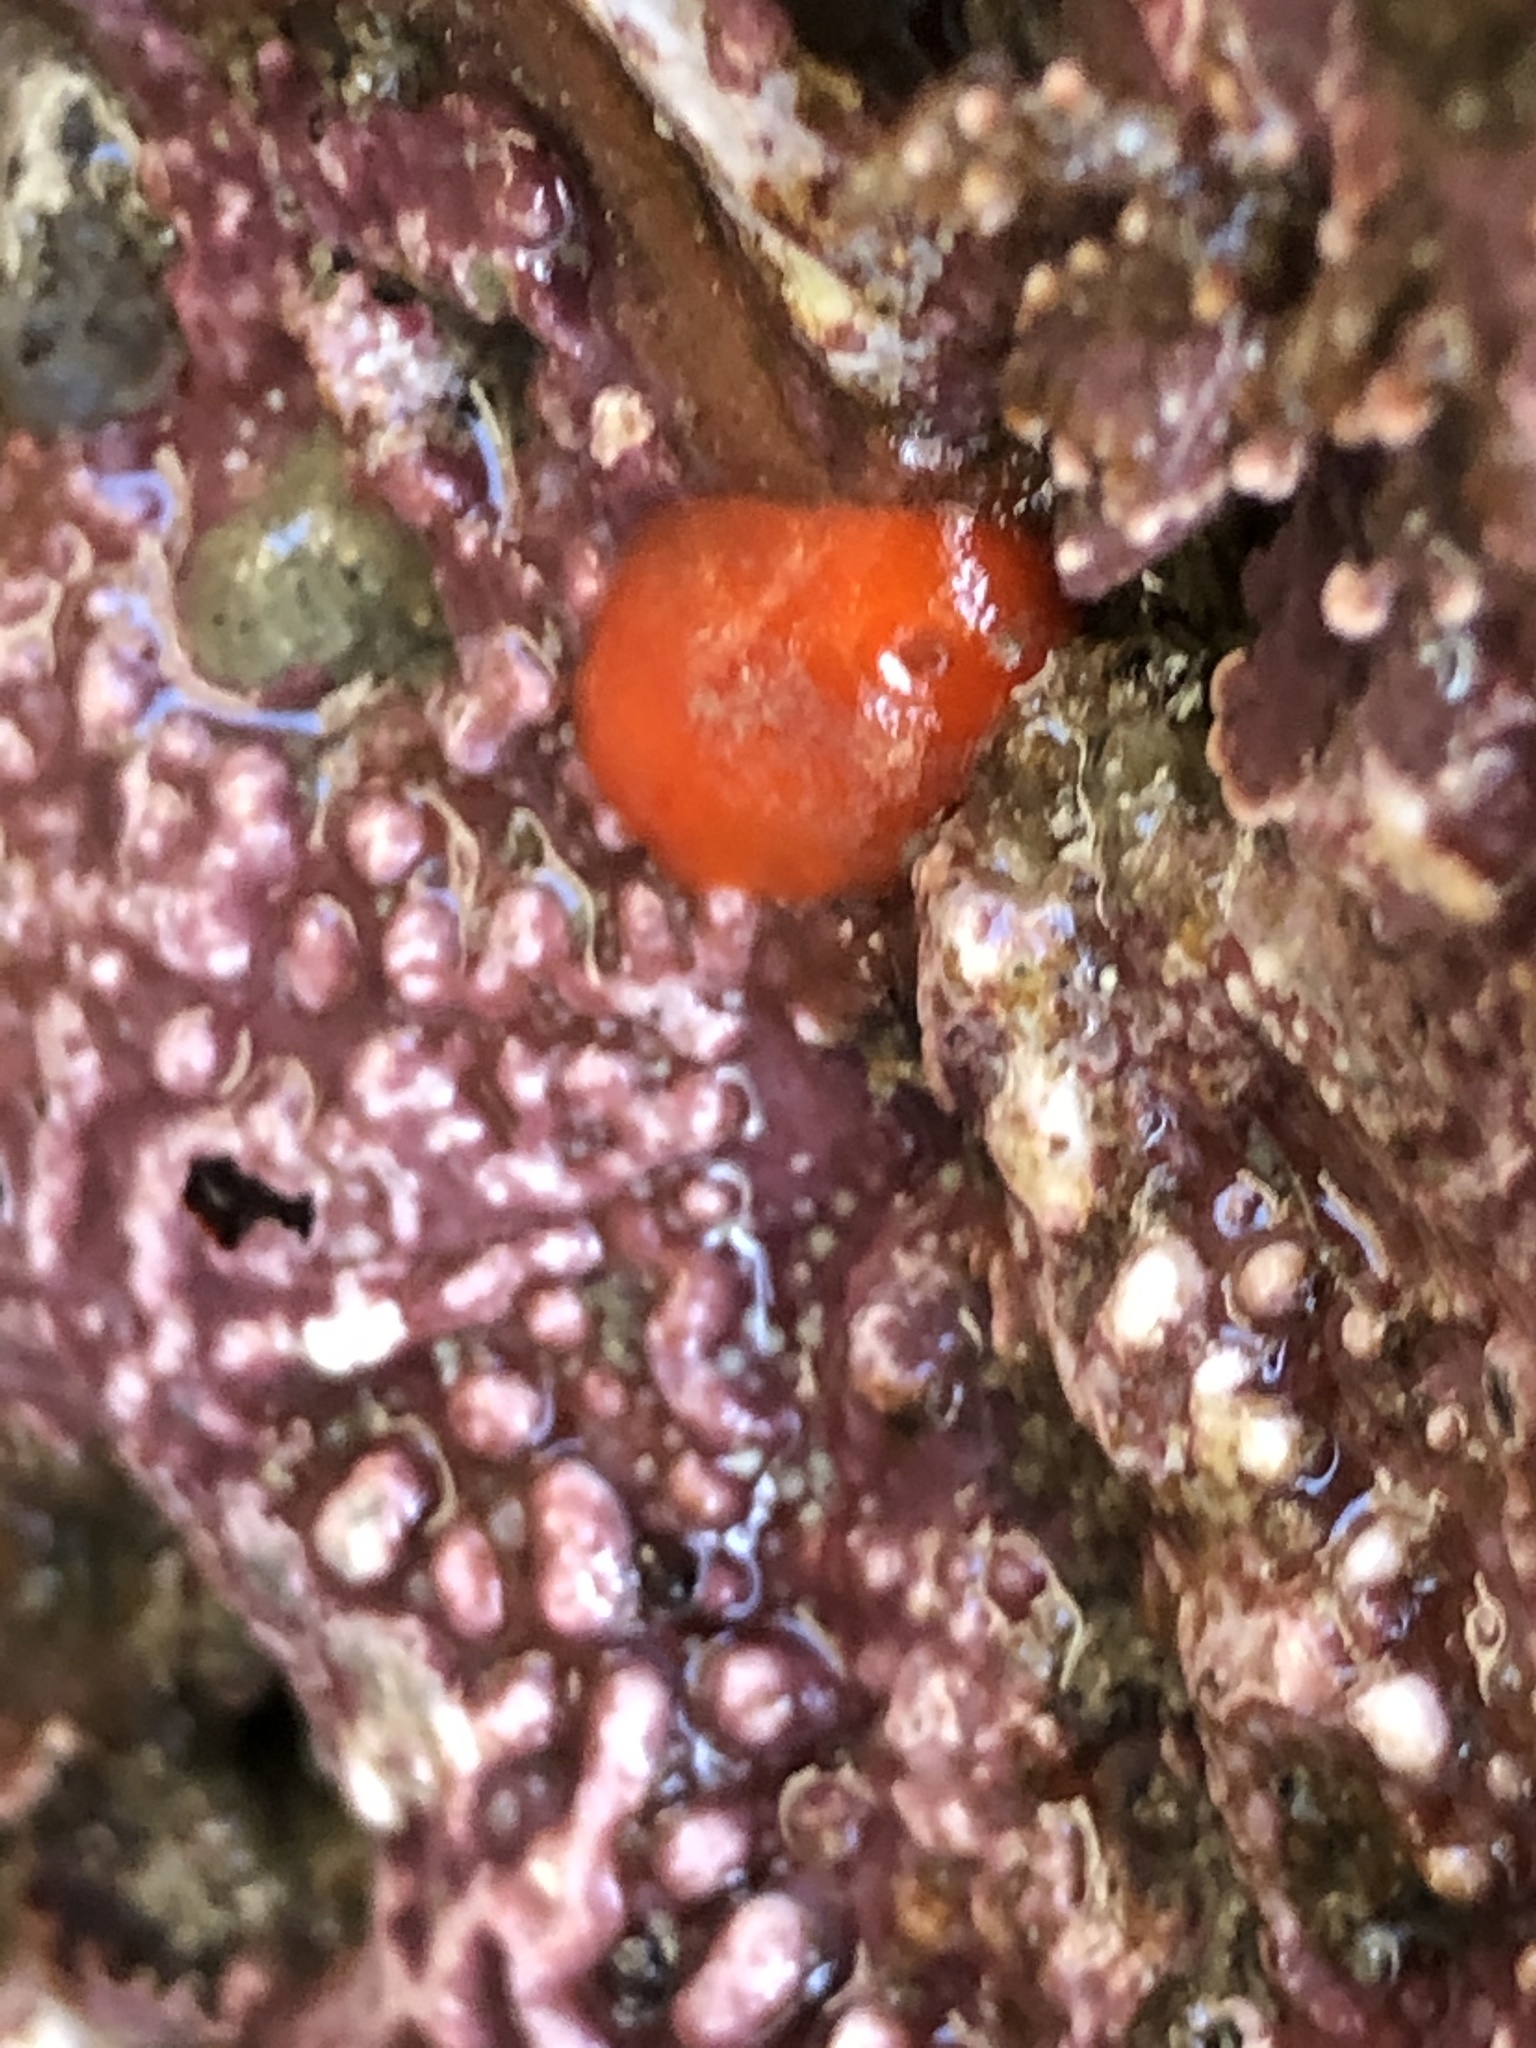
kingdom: Animalia
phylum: Mollusca
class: Bivalvia
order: Adapedonta
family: Hiatellidae
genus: Hiatella
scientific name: Hiatella arctica
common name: Arctic hiatella
